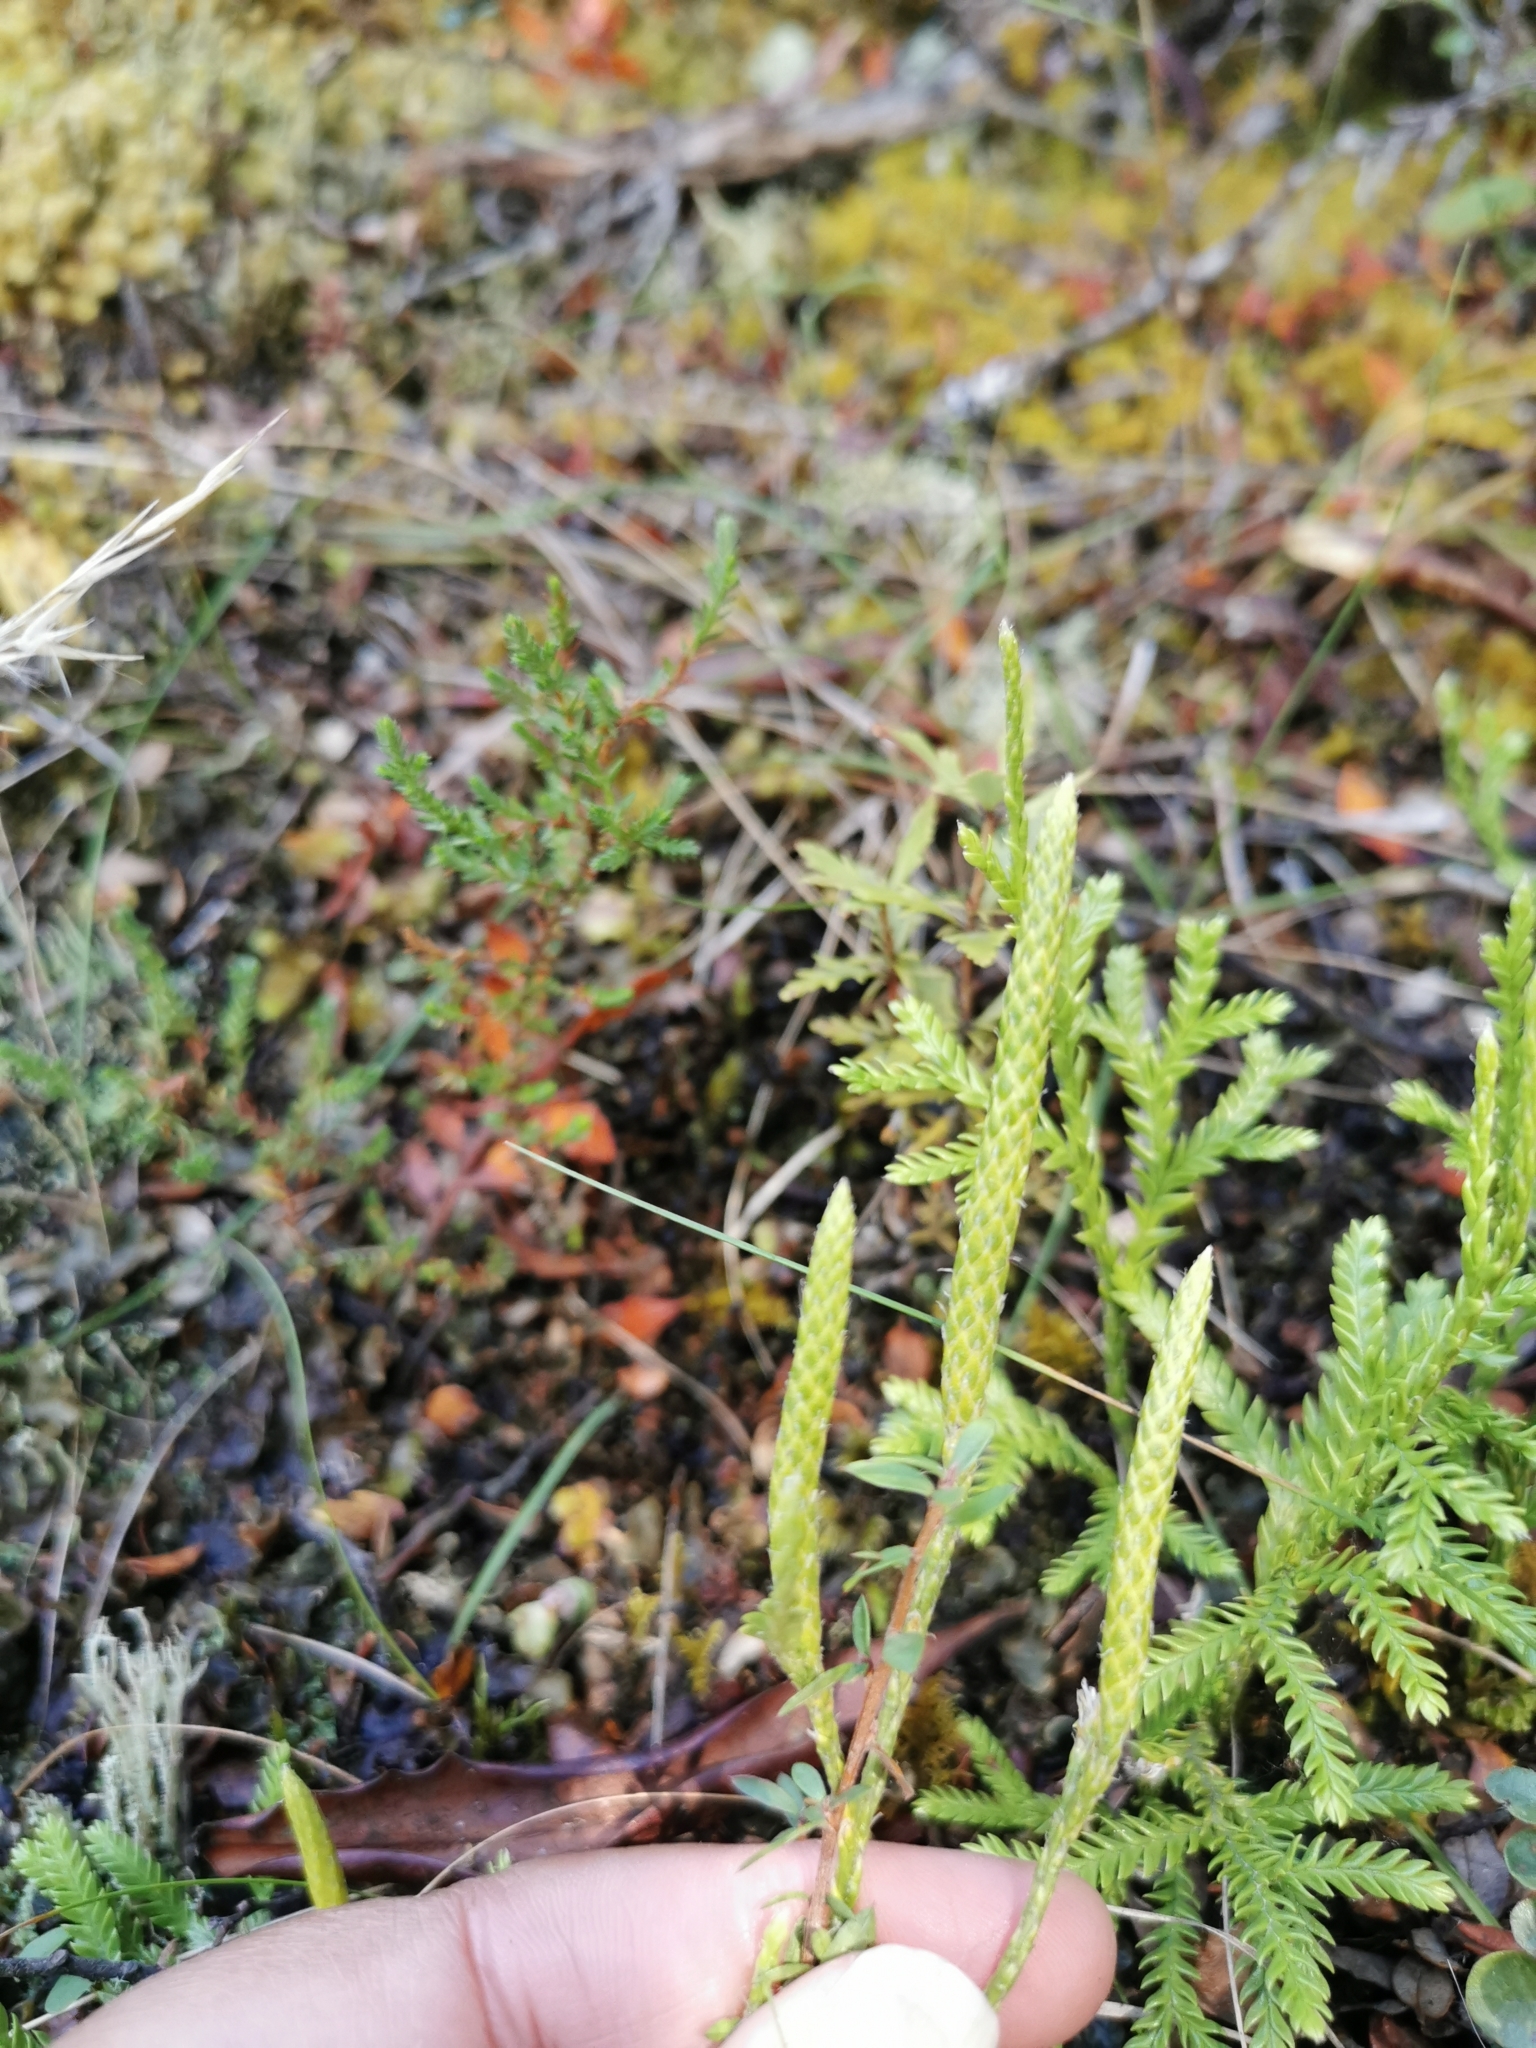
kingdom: Plantae
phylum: Tracheophyta
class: Lycopodiopsida
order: Lycopodiales
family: Lycopodiaceae
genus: Diphasium
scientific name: Diphasium scariosum
